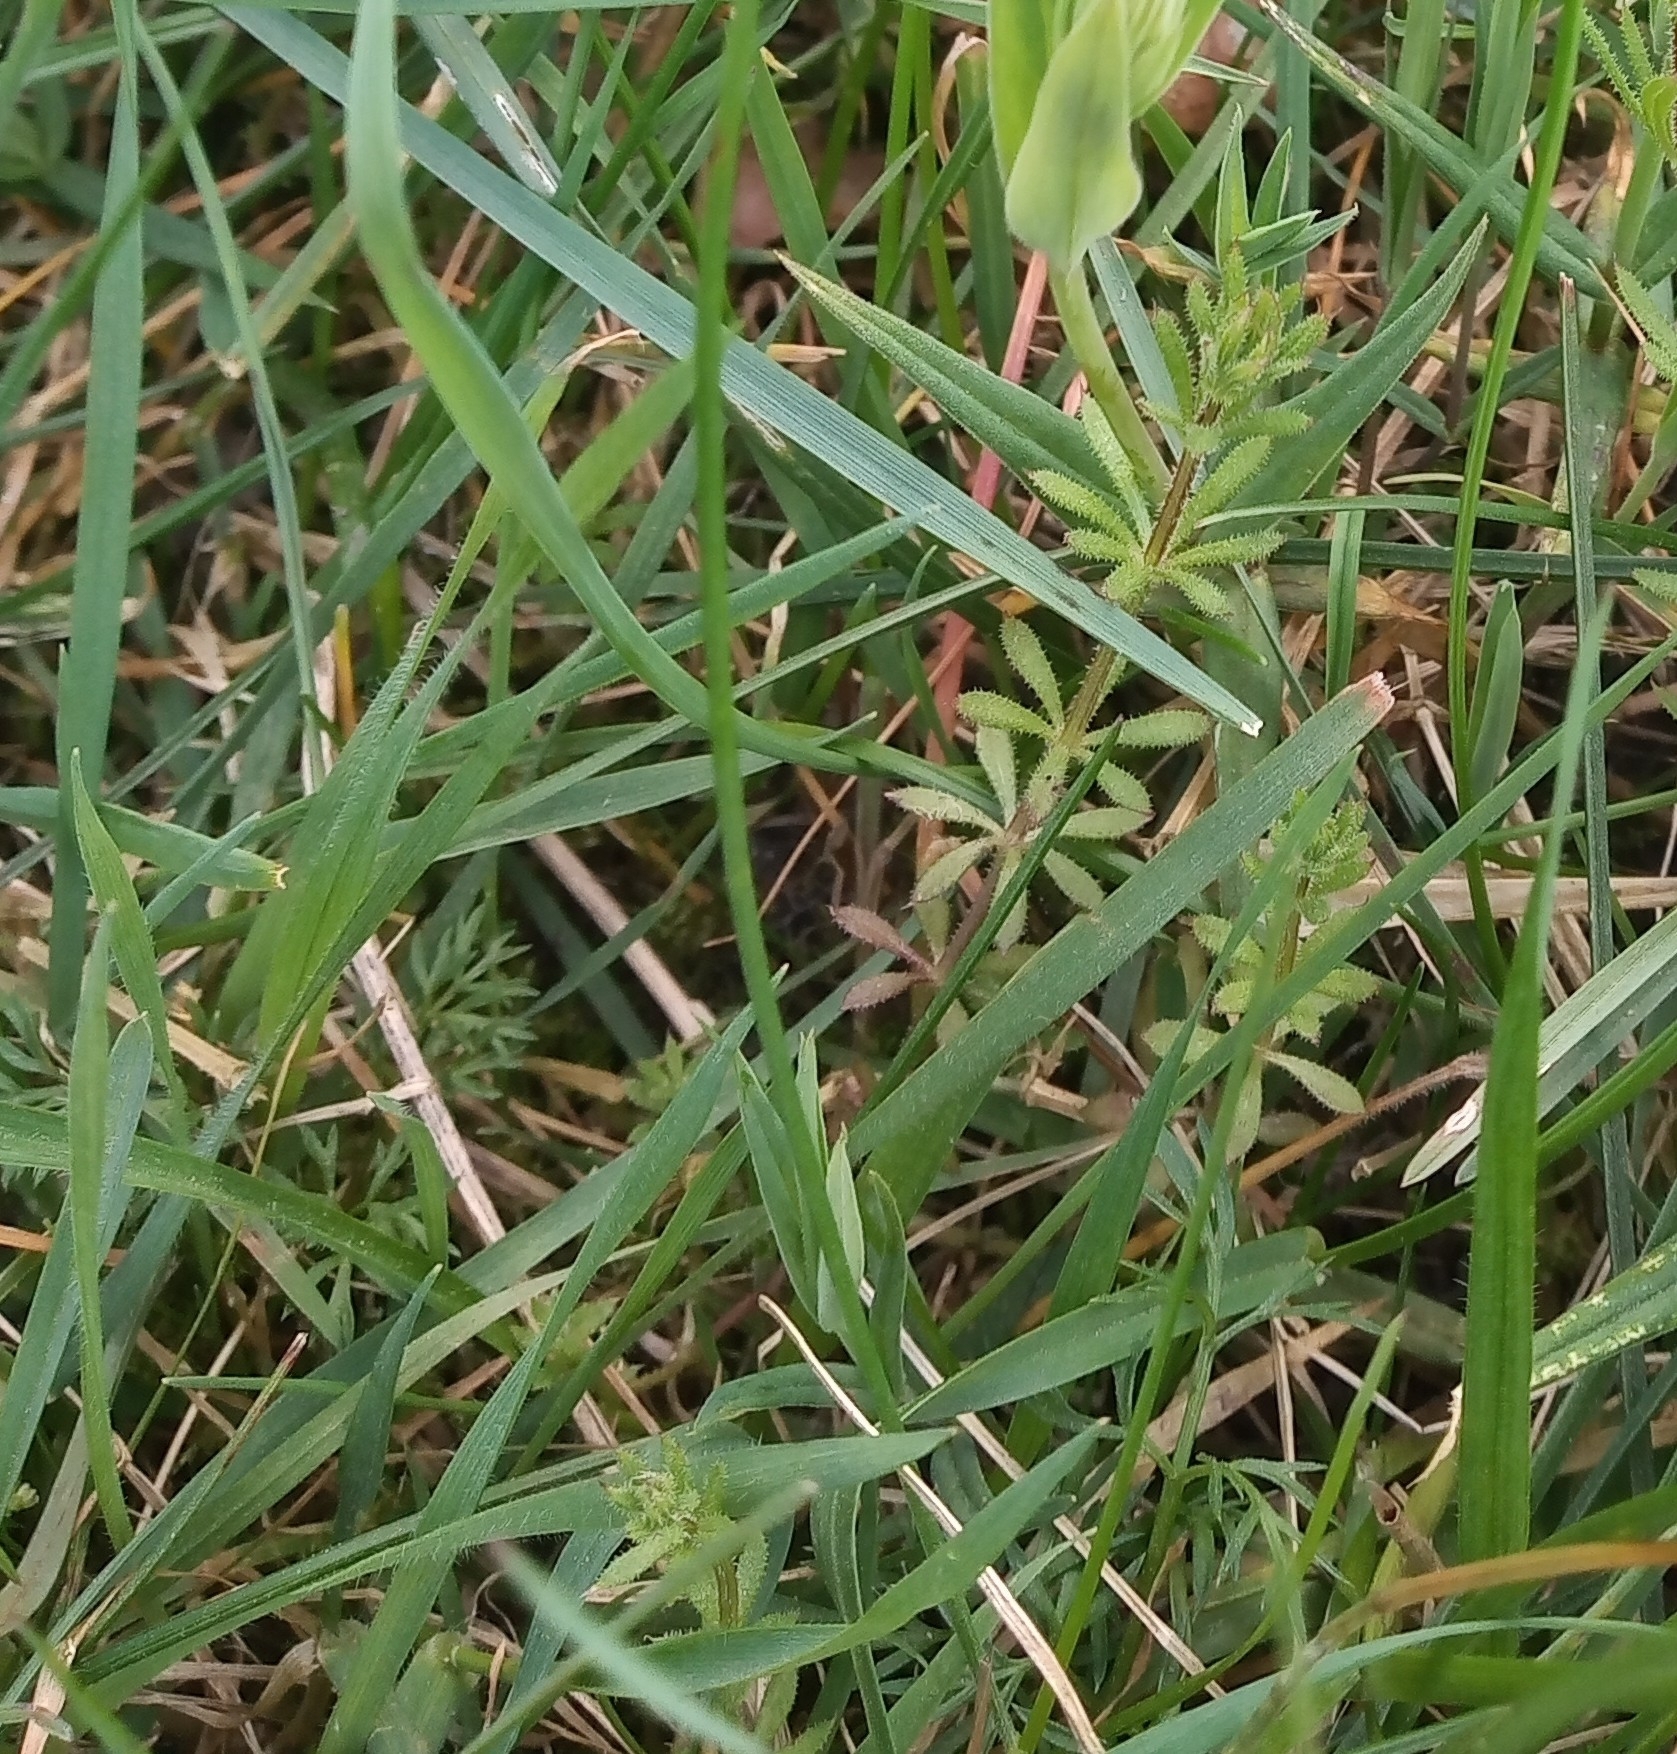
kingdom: Plantae
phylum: Tracheophyta
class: Magnoliopsida
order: Gentianales
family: Rubiaceae
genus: Galium
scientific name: Galium aparine
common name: Cleavers
